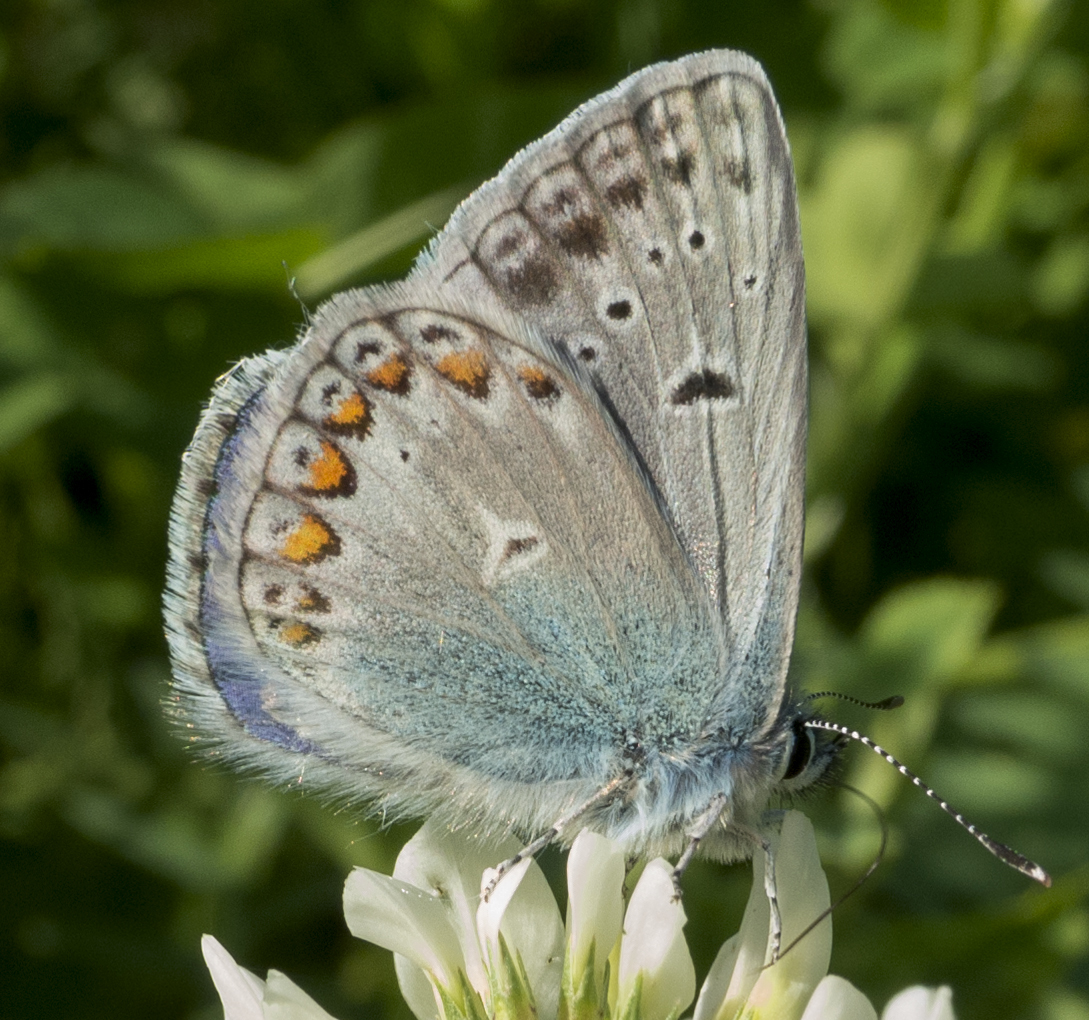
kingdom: Animalia
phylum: Arthropoda
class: Insecta
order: Lepidoptera
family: Lycaenidae
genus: Polyommatus
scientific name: Polyommatus icarus
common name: Common blue
